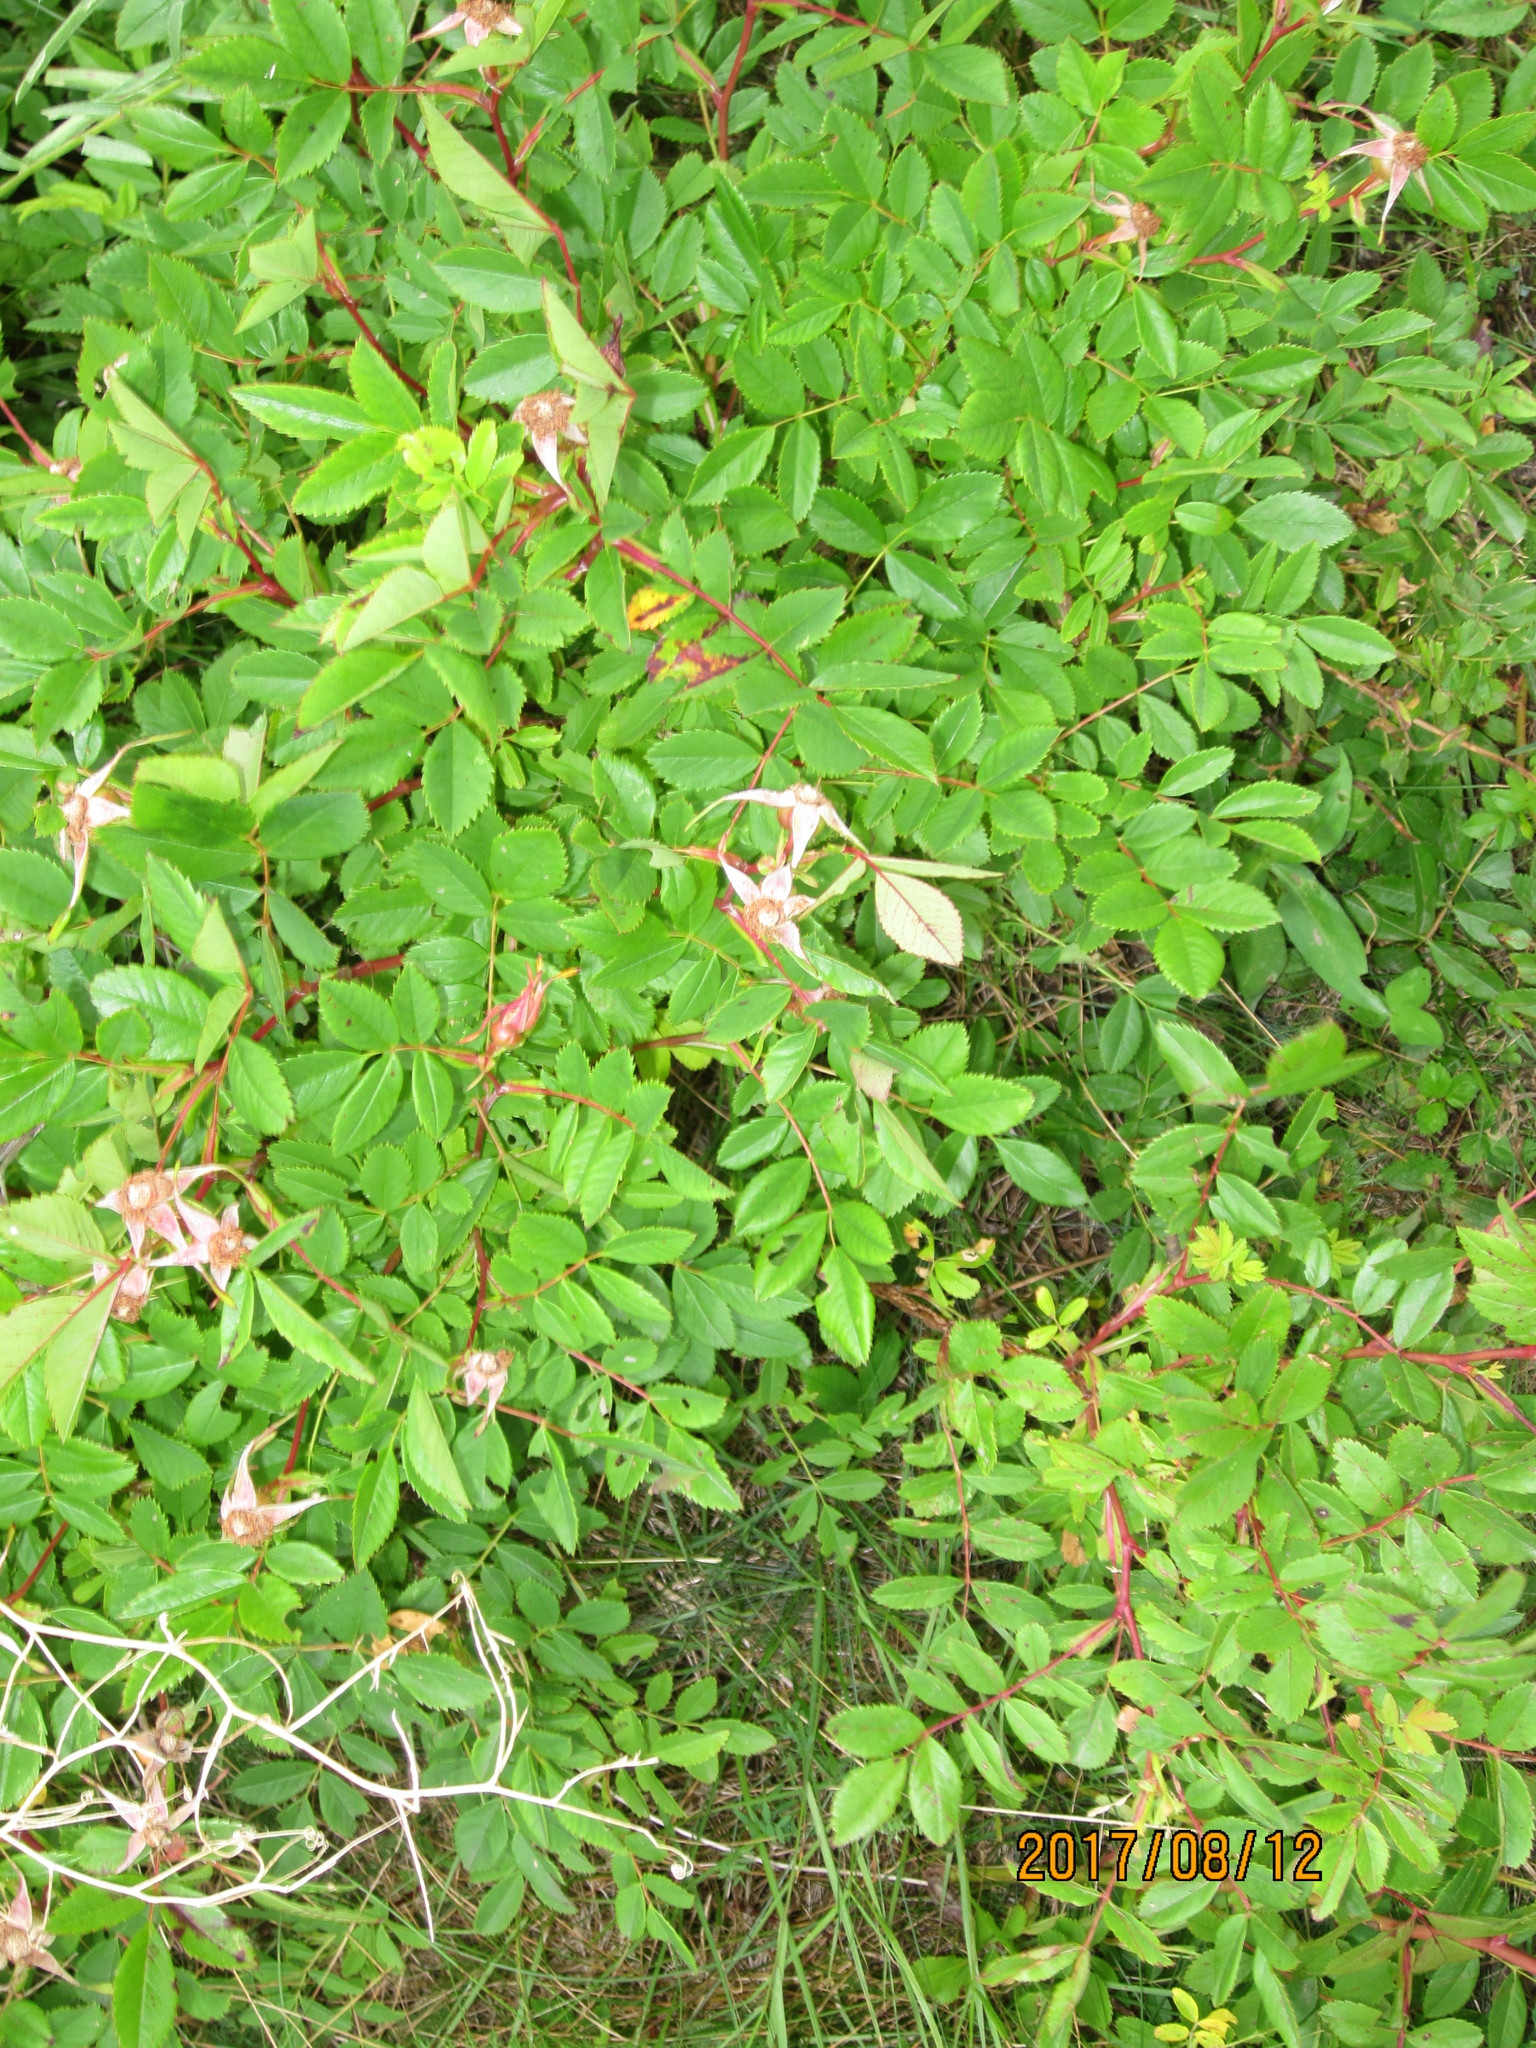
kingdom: Plantae
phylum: Tracheophyta
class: Magnoliopsida
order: Rosales
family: Rosaceae
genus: Rosa
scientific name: Rosa virginiana
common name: Virginian rose
